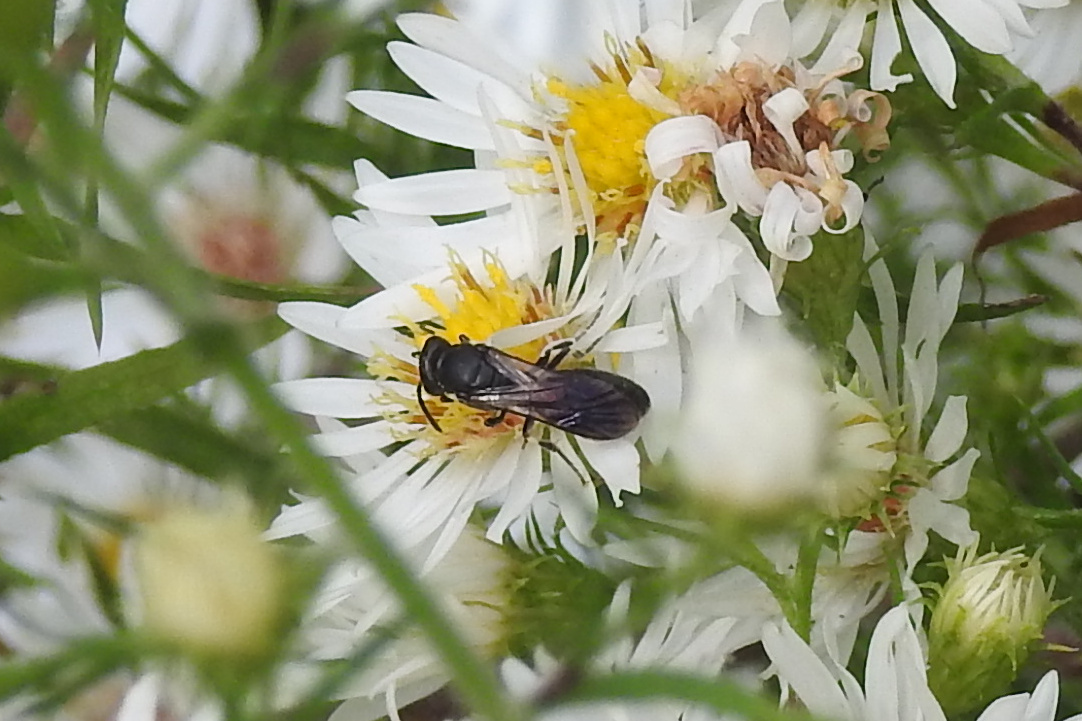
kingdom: Animalia
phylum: Arthropoda
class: Insecta
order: Hymenoptera
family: Colletidae
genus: Hylaeus
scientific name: Hylaeus schwarzii
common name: Schwarz's masked bee
